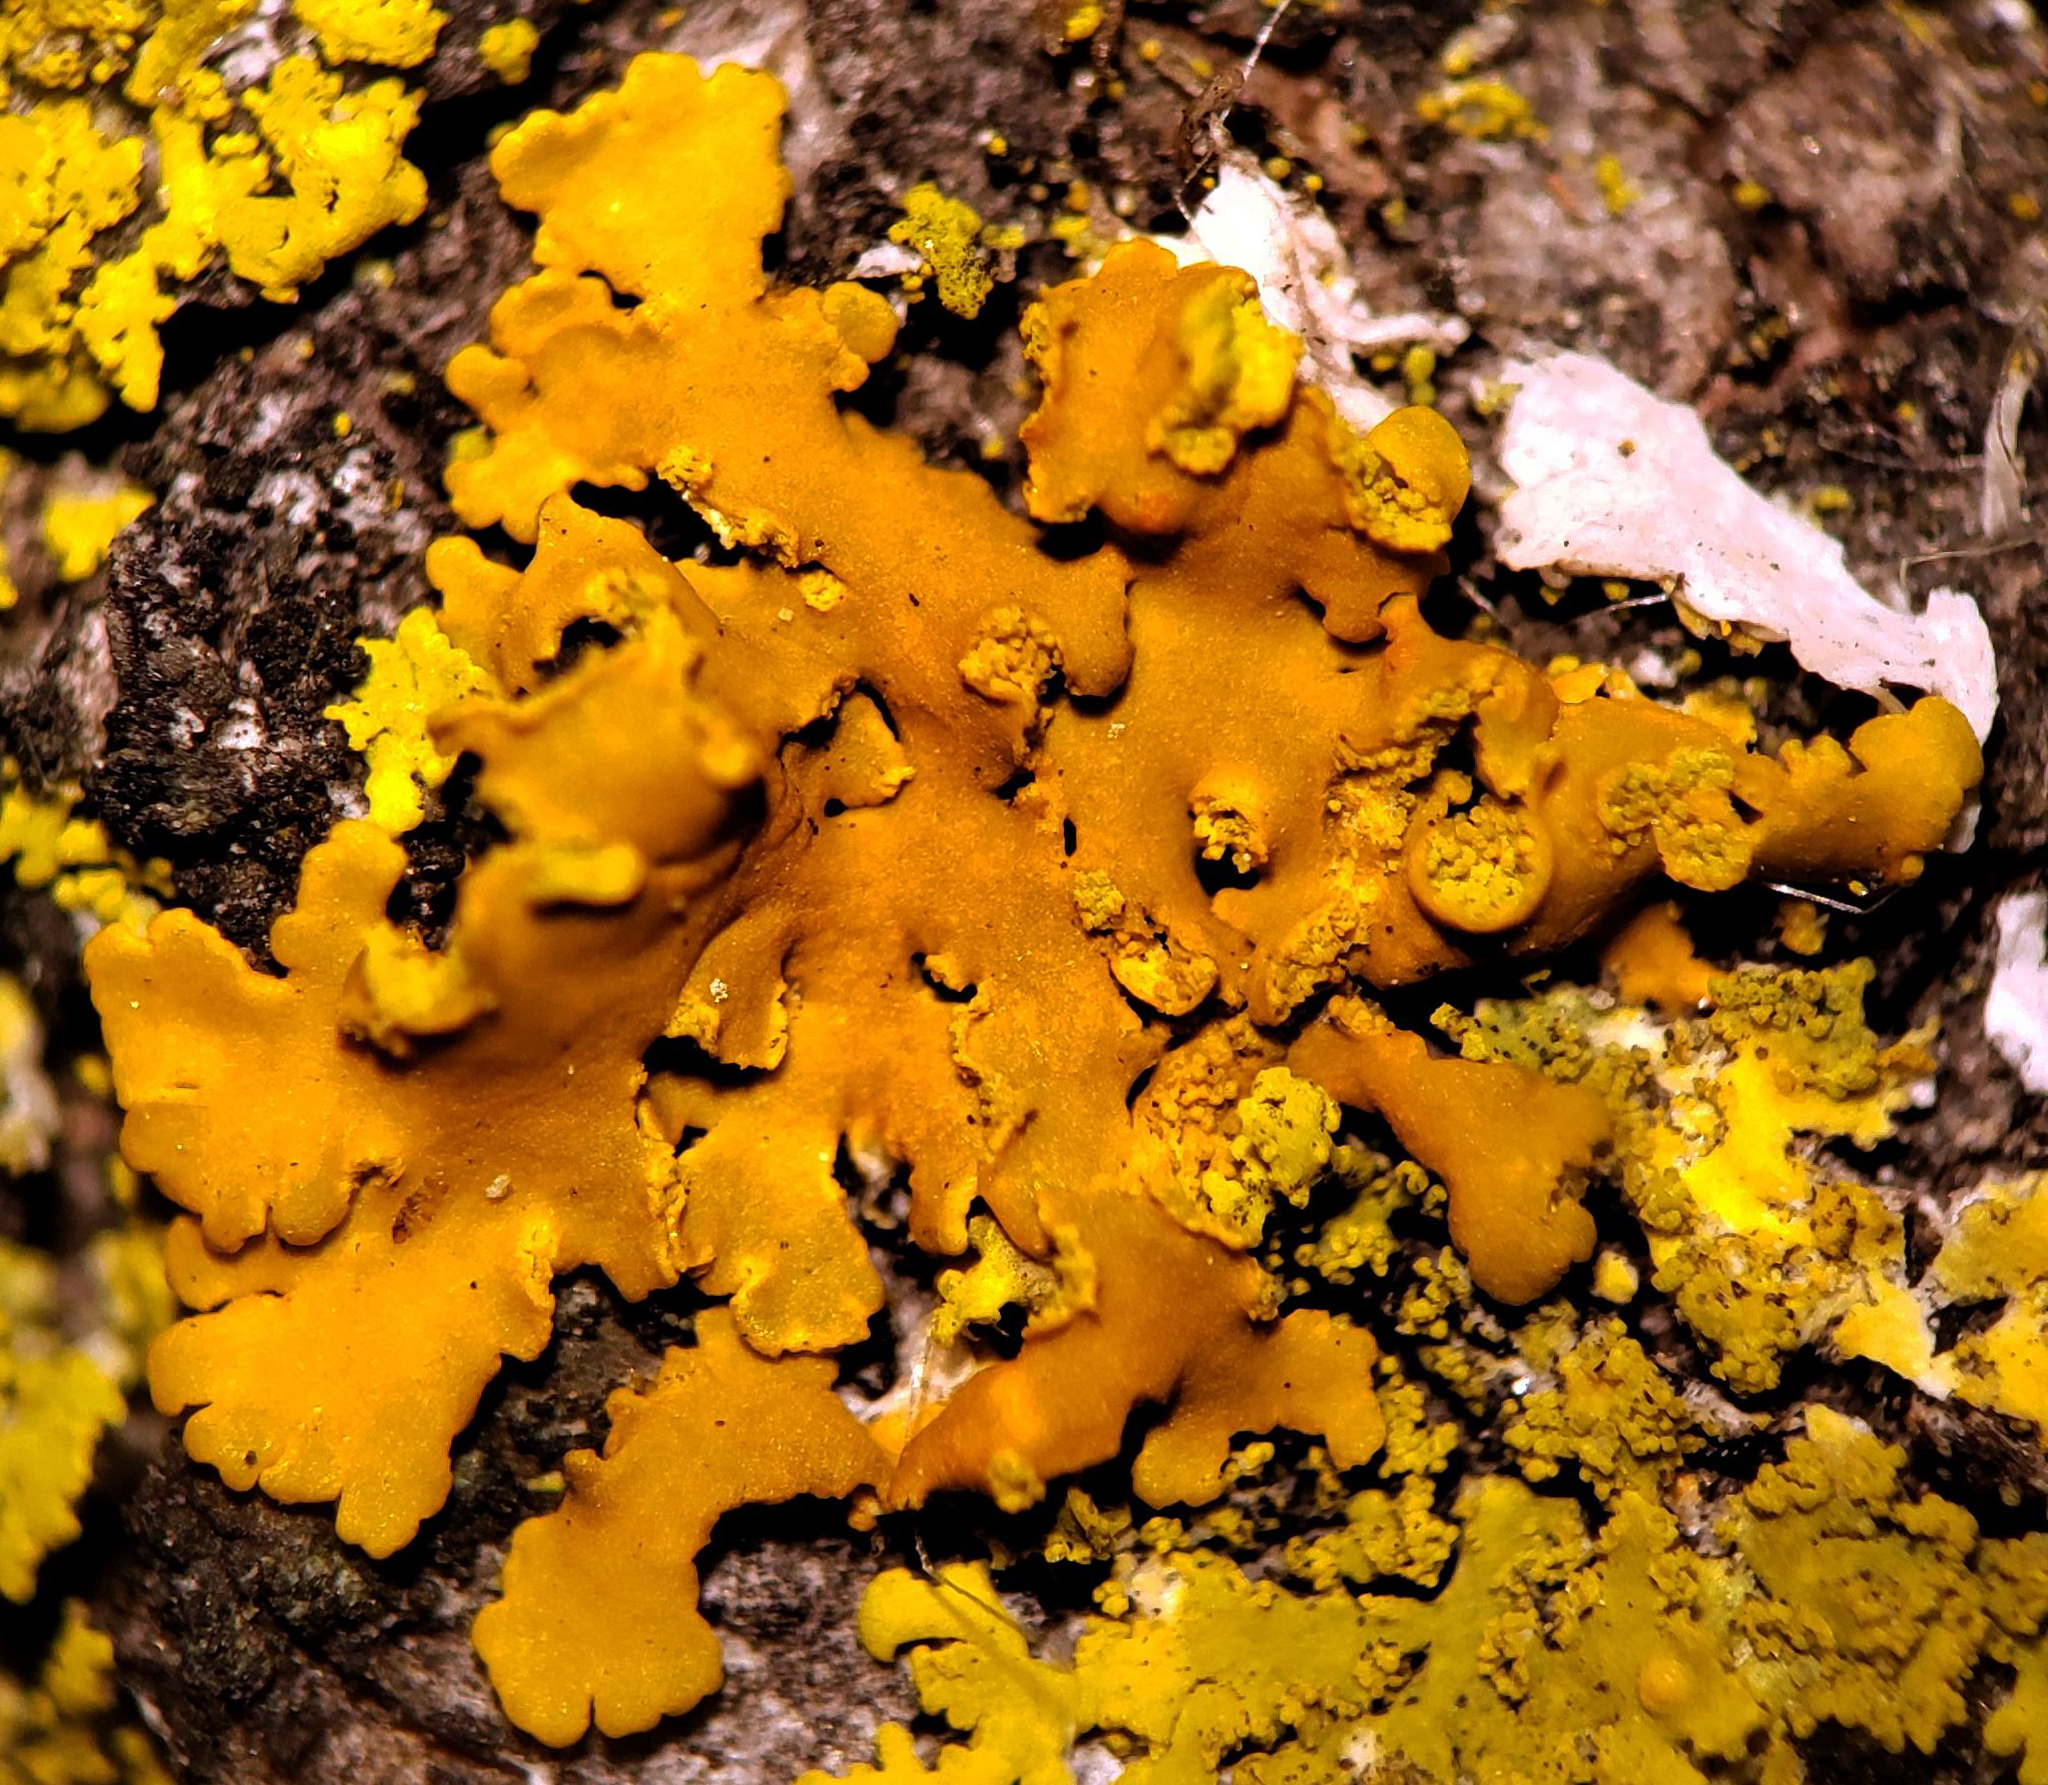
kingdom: Fungi
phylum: Ascomycota
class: Lecanoromycetes
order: Teloschistales
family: Teloschistaceae
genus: Oxneria
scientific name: Oxneria fallax
